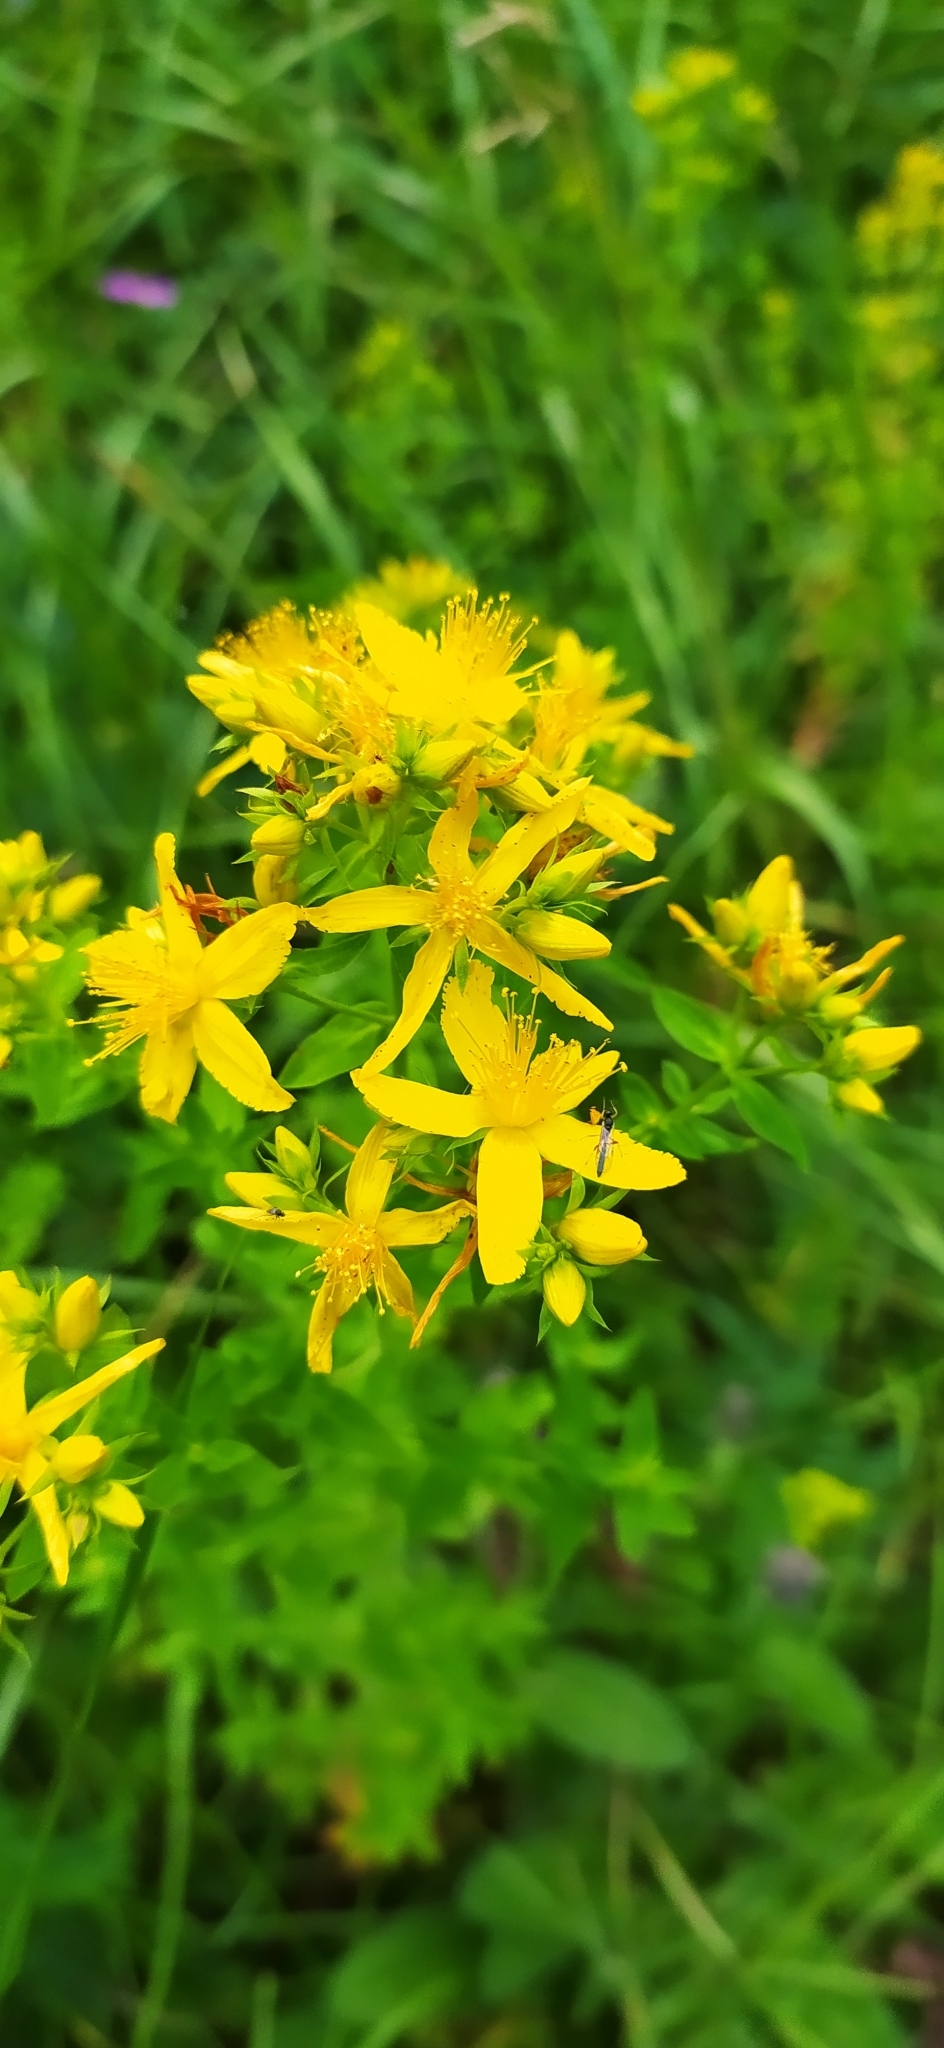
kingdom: Plantae
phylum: Tracheophyta
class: Magnoliopsida
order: Malpighiales
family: Hypericaceae
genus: Hypericum
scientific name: Hypericum perforatum
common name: Common st. johnswort
